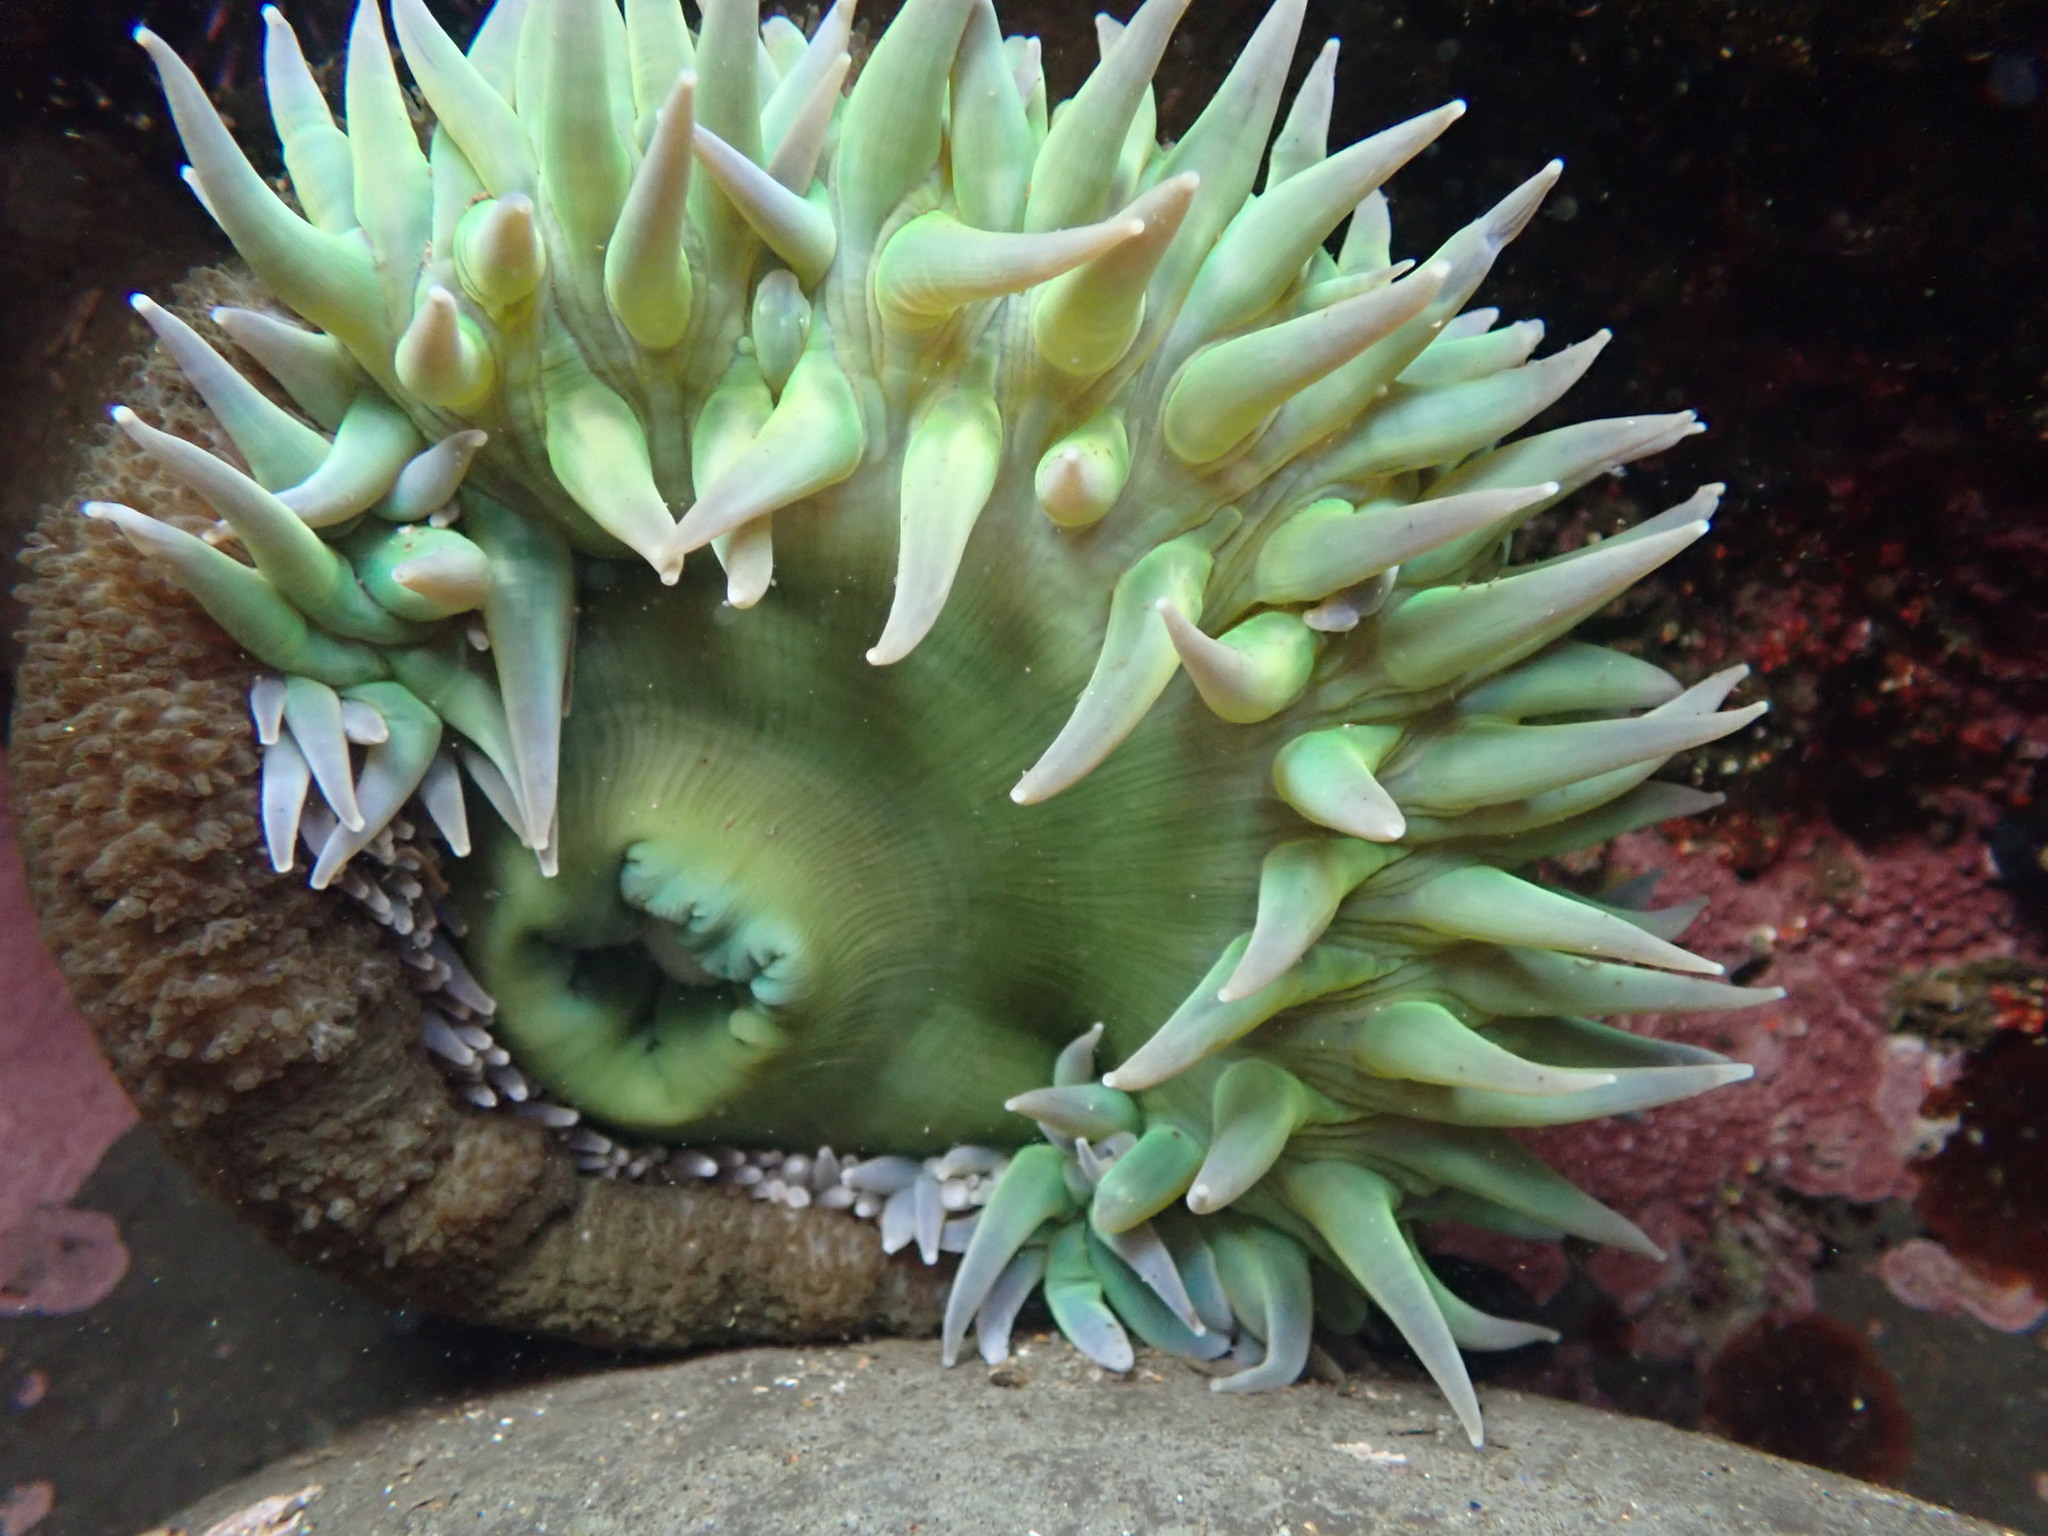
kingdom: Animalia
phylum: Cnidaria
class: Anthozoa
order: Actiniaria
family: Actiniidae
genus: Anthopleura
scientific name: Anthopleura xanthogrammica
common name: Giant green anemone
